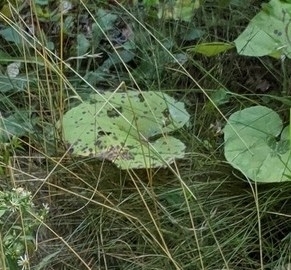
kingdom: Plantae
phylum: Tracheophyta
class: Magnoliopsida
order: Asterales
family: Asteraceae
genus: Tussilago
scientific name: Tussilago farfara
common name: Coltsfoot
